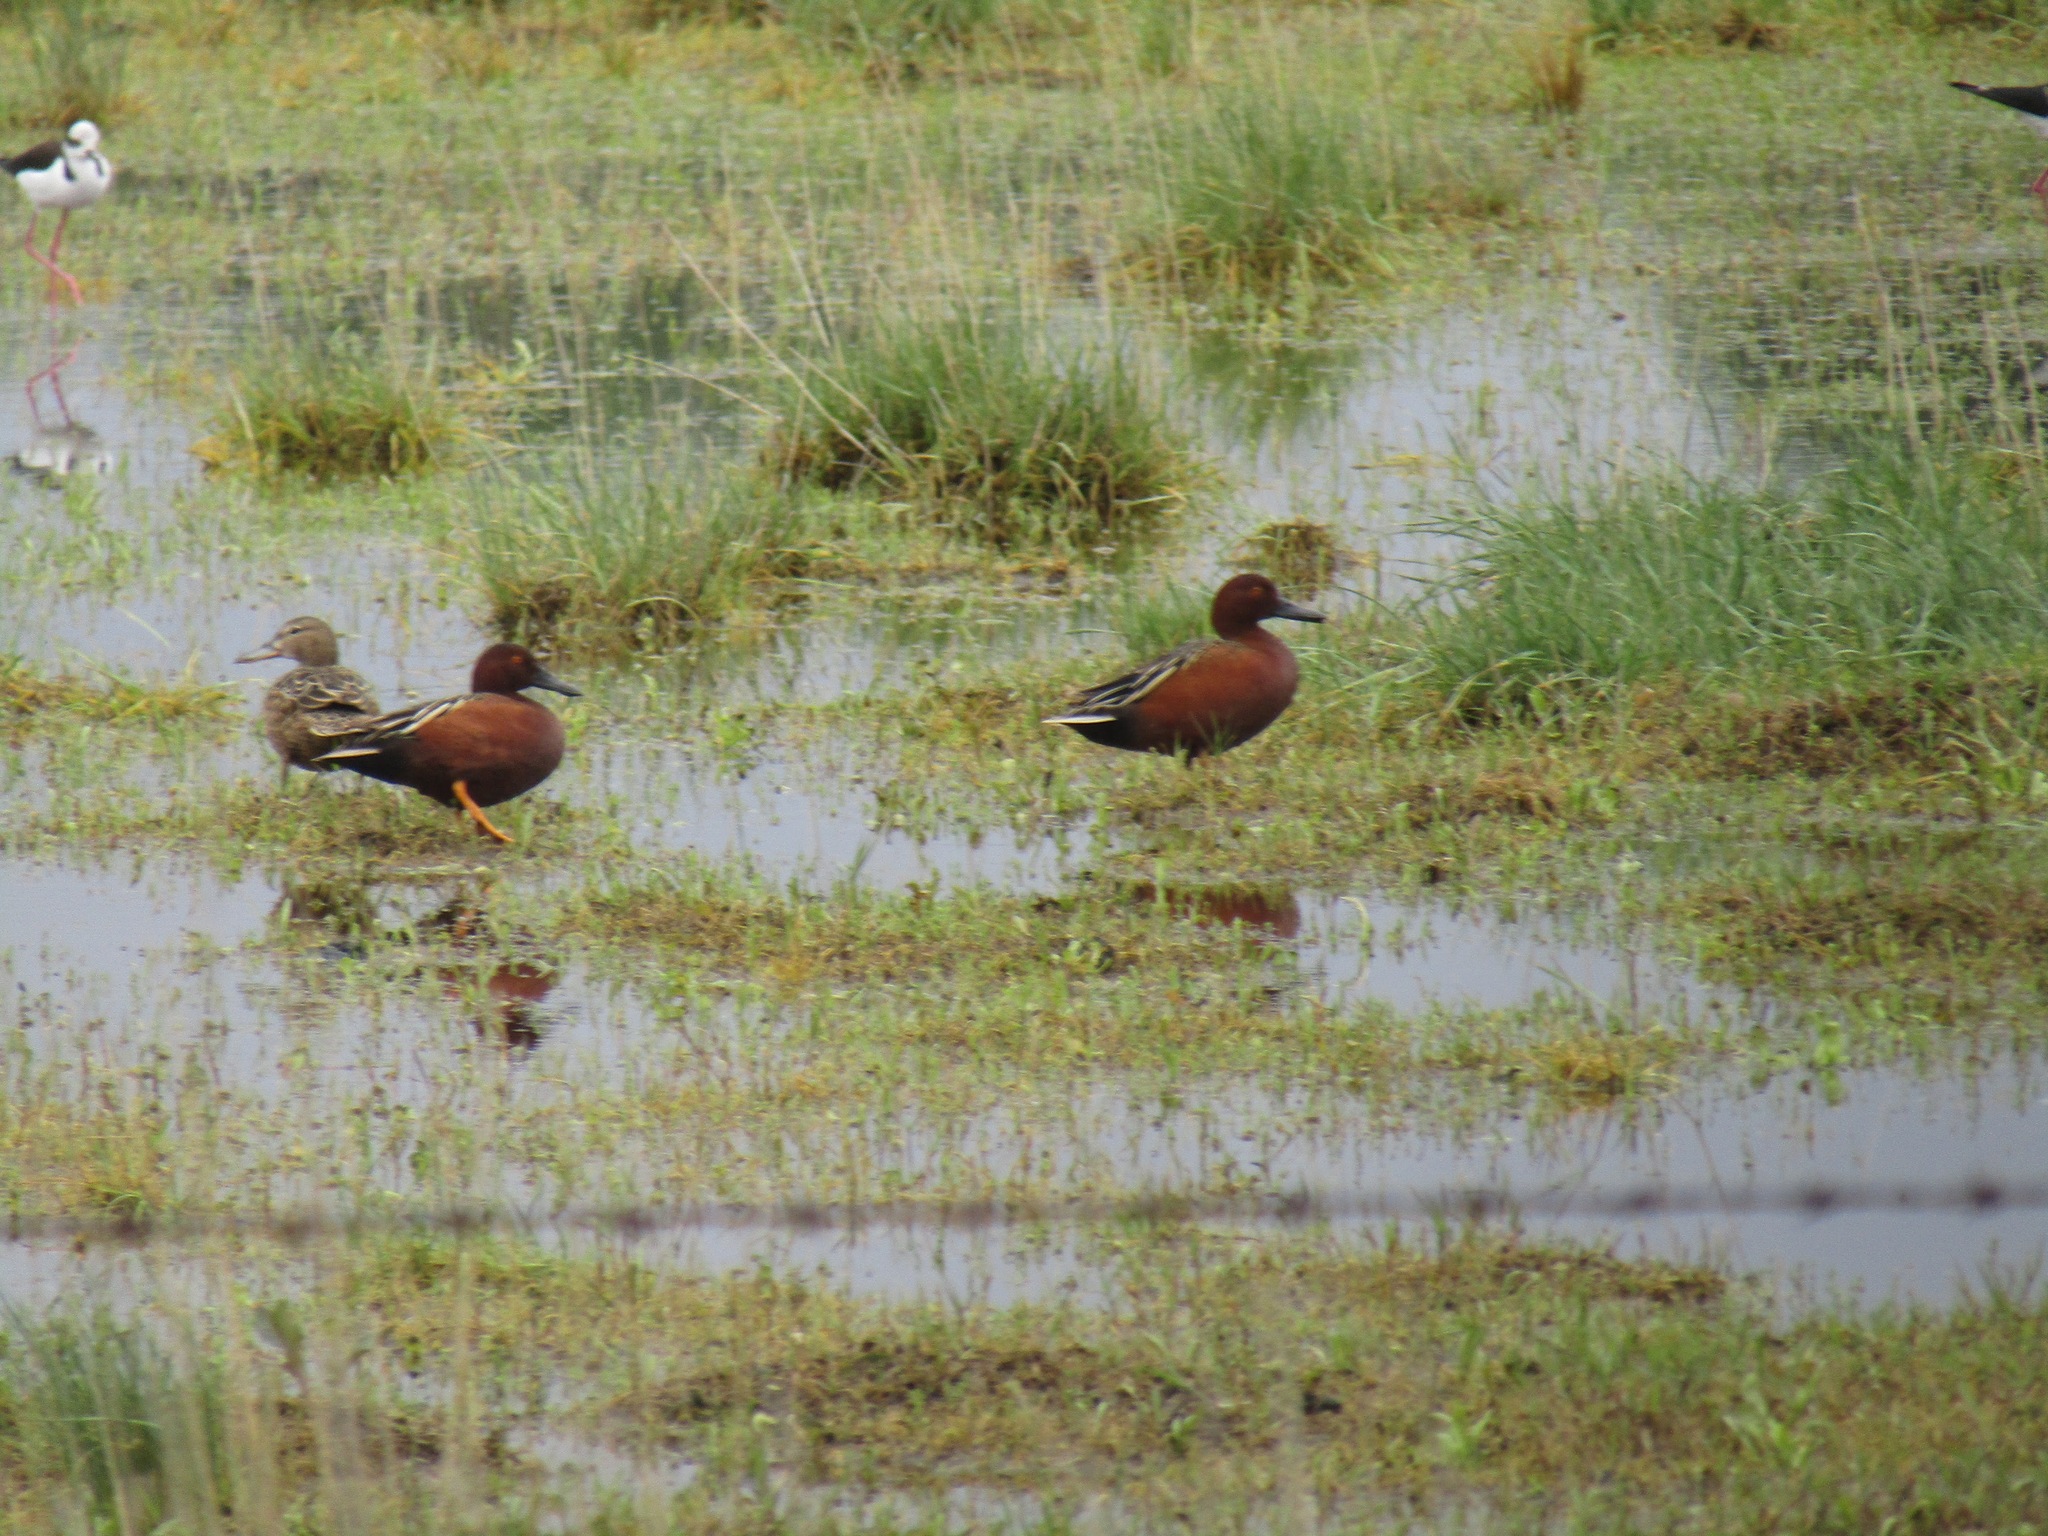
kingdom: Animalia
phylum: Chordata
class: Aves
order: Anseriformes
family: Anatidae
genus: Spatula
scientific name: Spatula cyanoptera
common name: Cinnamon teal
